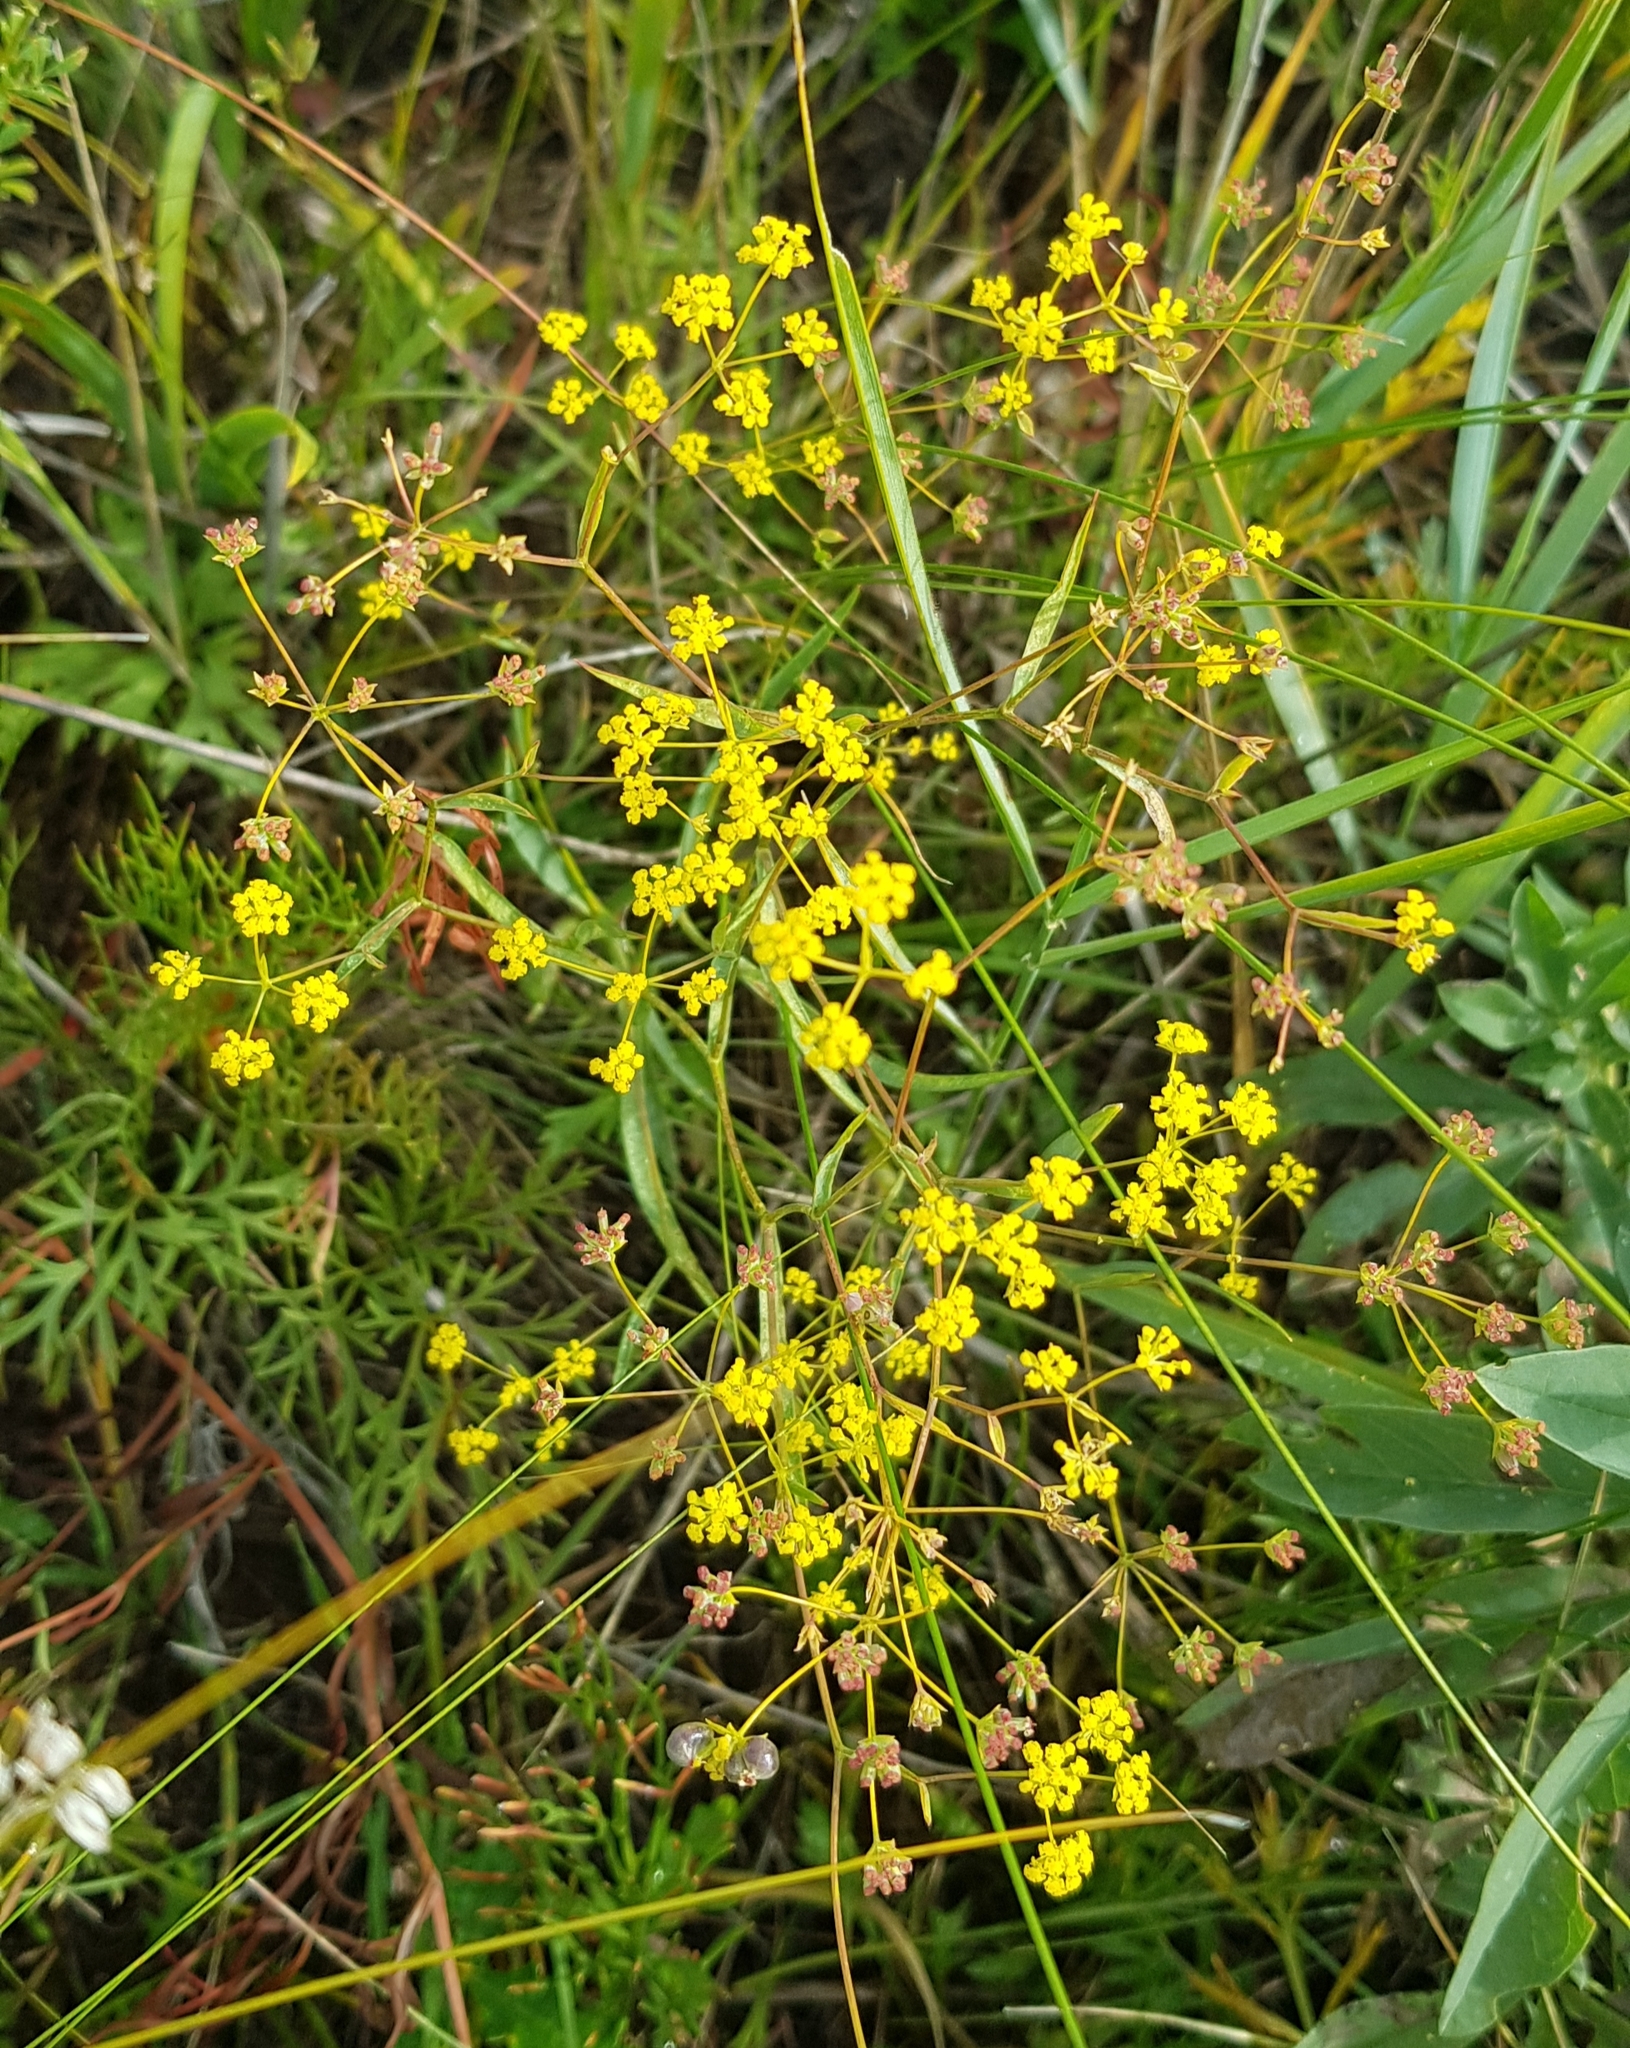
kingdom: Plantae
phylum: Tracheophyta
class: Magnoliopsida
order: Apiales
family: Apiaceae
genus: Bupleurum
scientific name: Bupleurum scorzonerifolium
